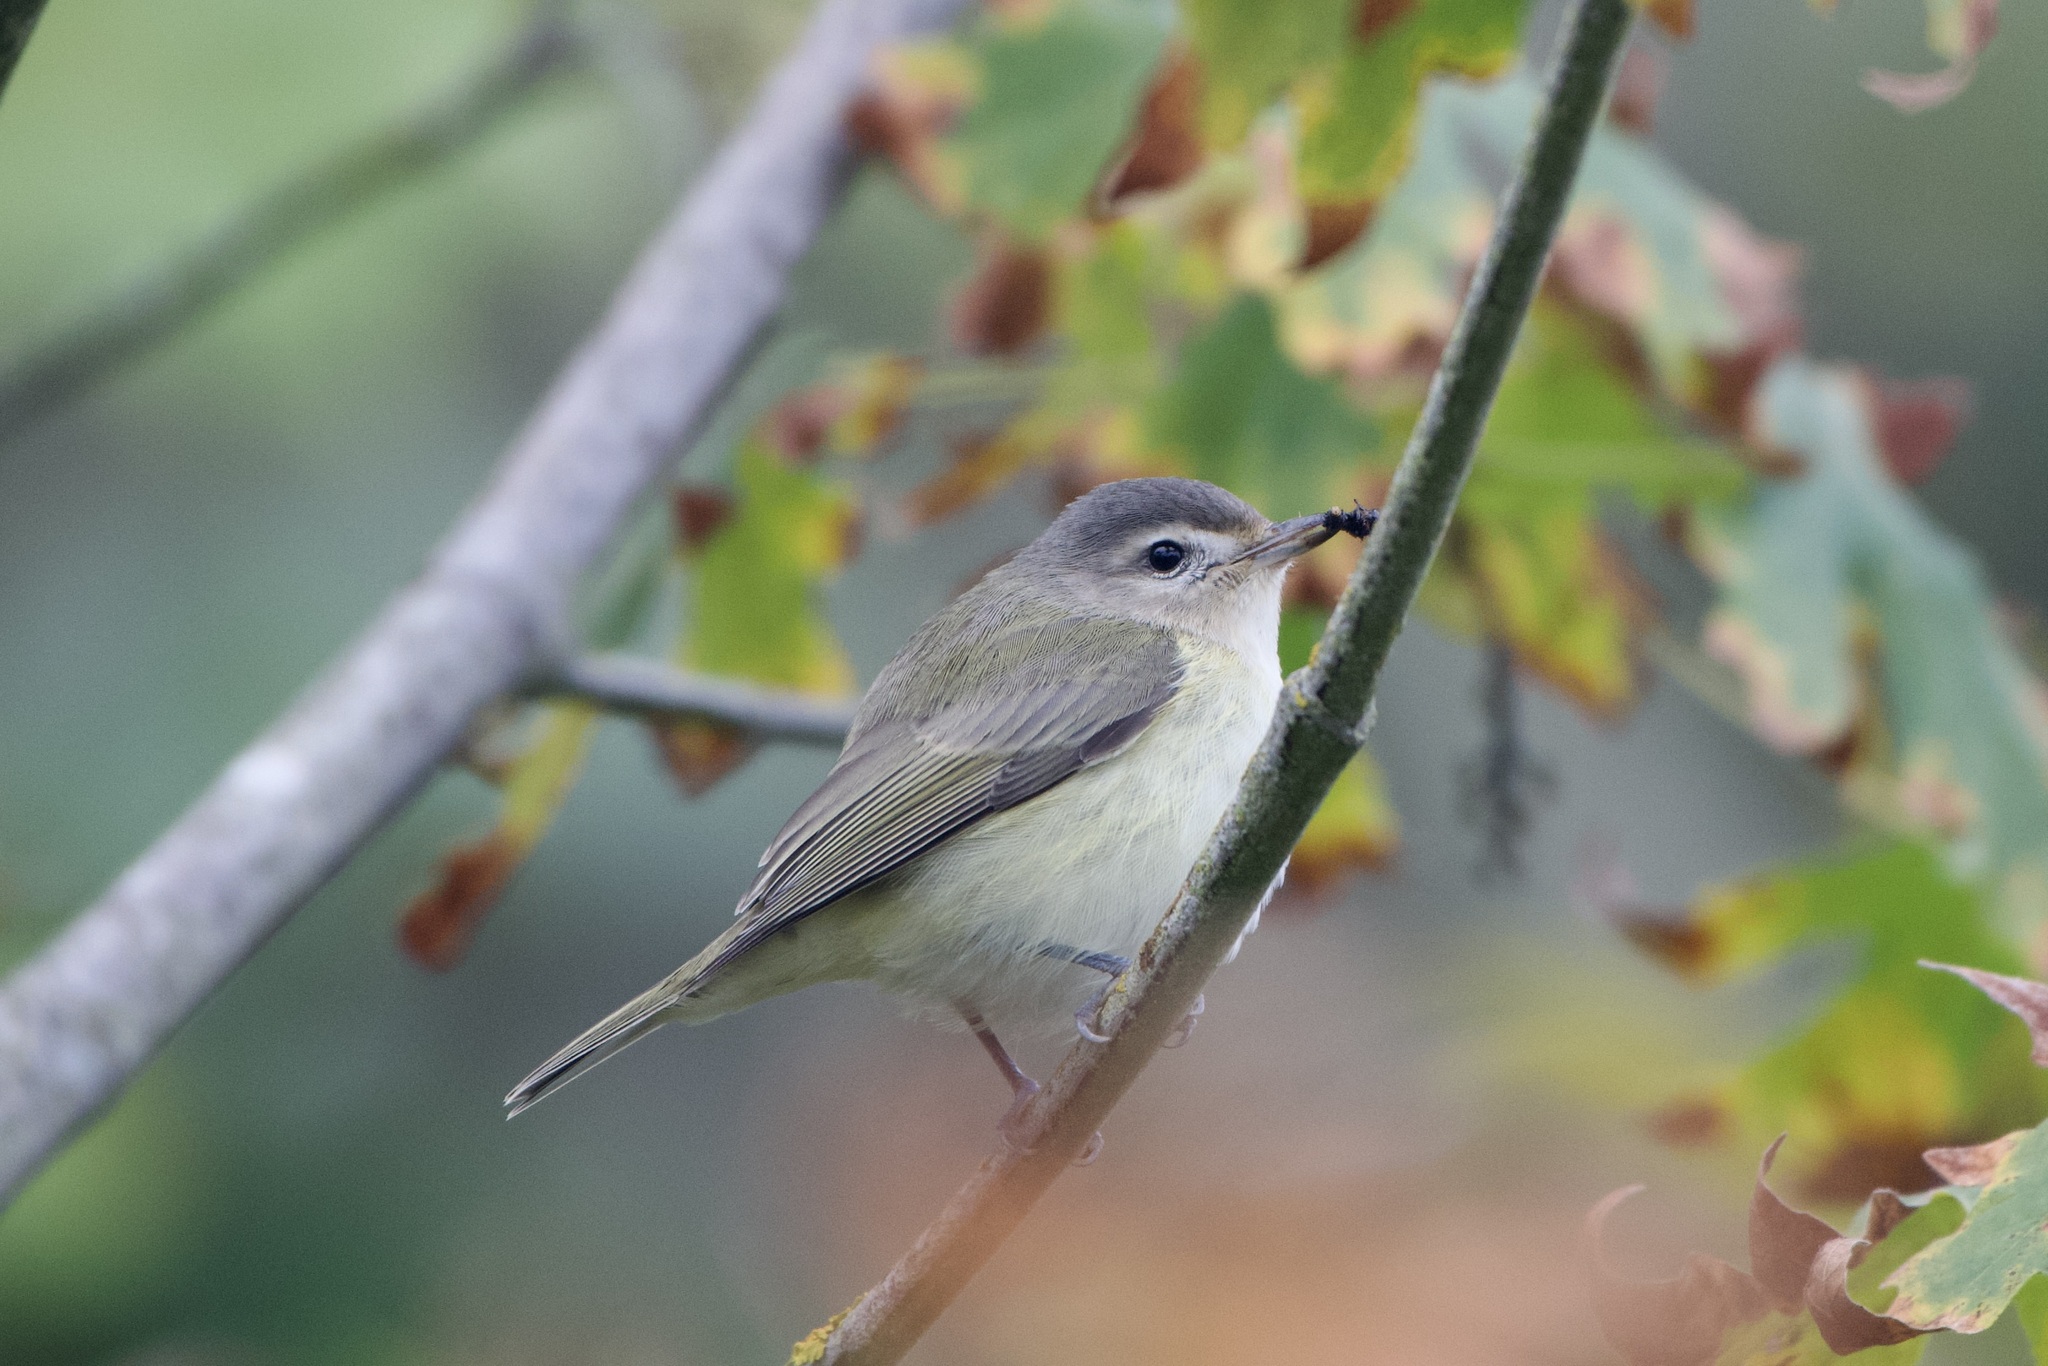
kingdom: Animalia
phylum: Chordata
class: Aves
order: Passeriformes
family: Vireonidae
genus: Vireo
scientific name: Vireo gilvus
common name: Warbling vireo
